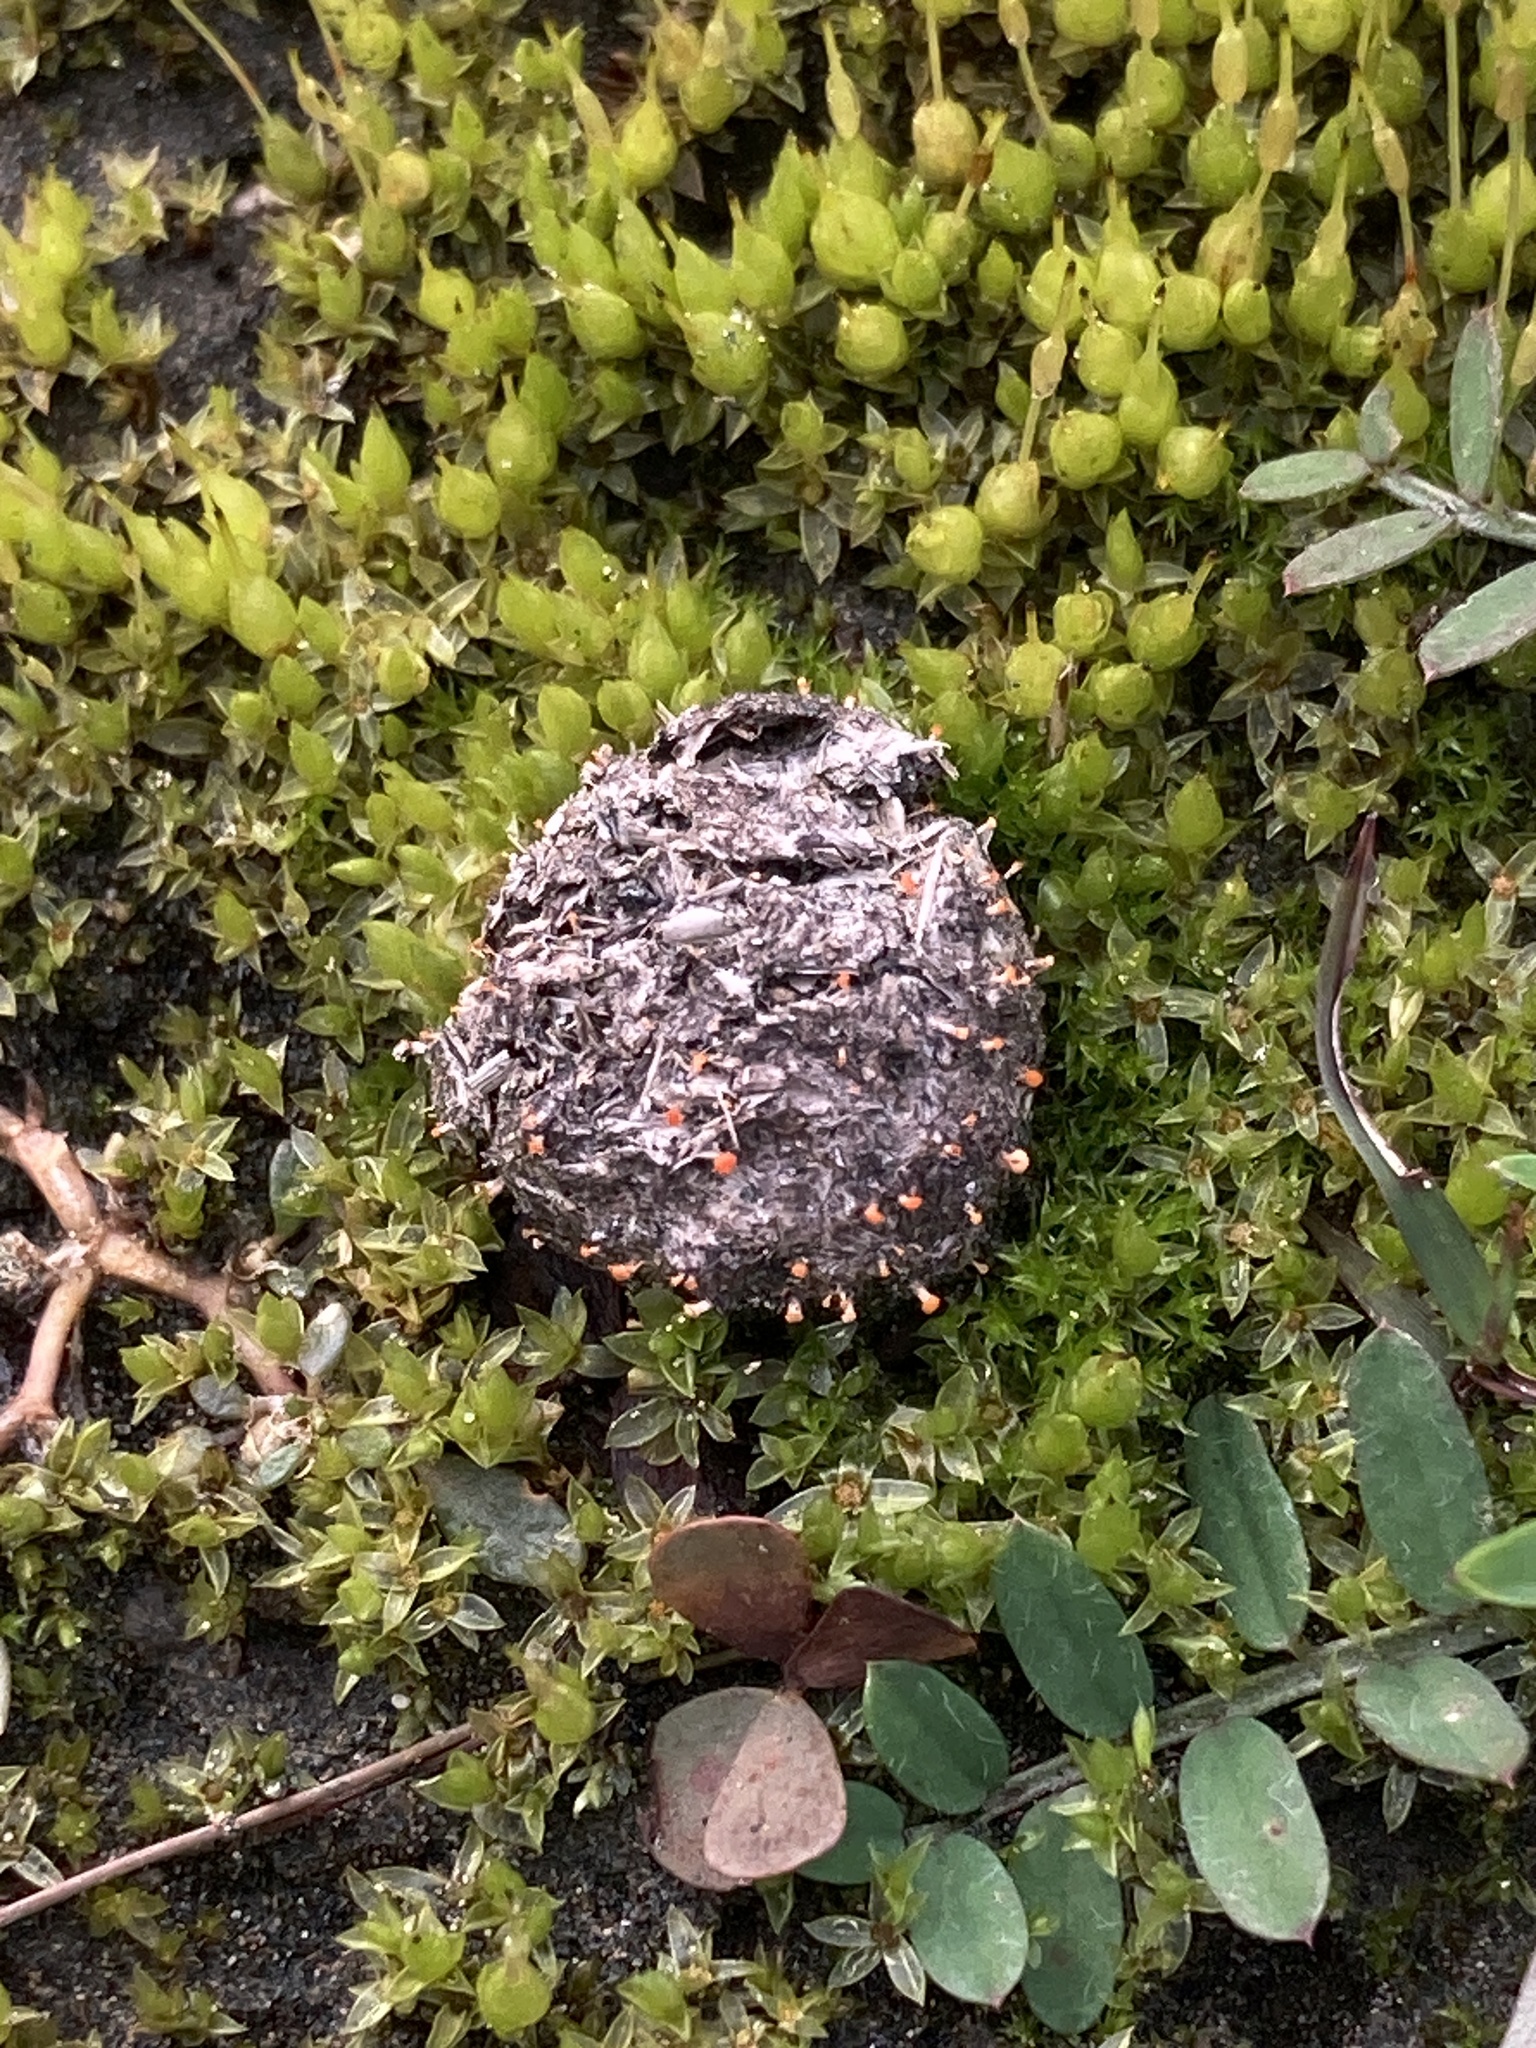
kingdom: Fungi
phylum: Ascomycota
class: Sordariomycetes
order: Hypocreales
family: Myrotheciomycetaceae
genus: Emericellopsis
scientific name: Emericellopsis
